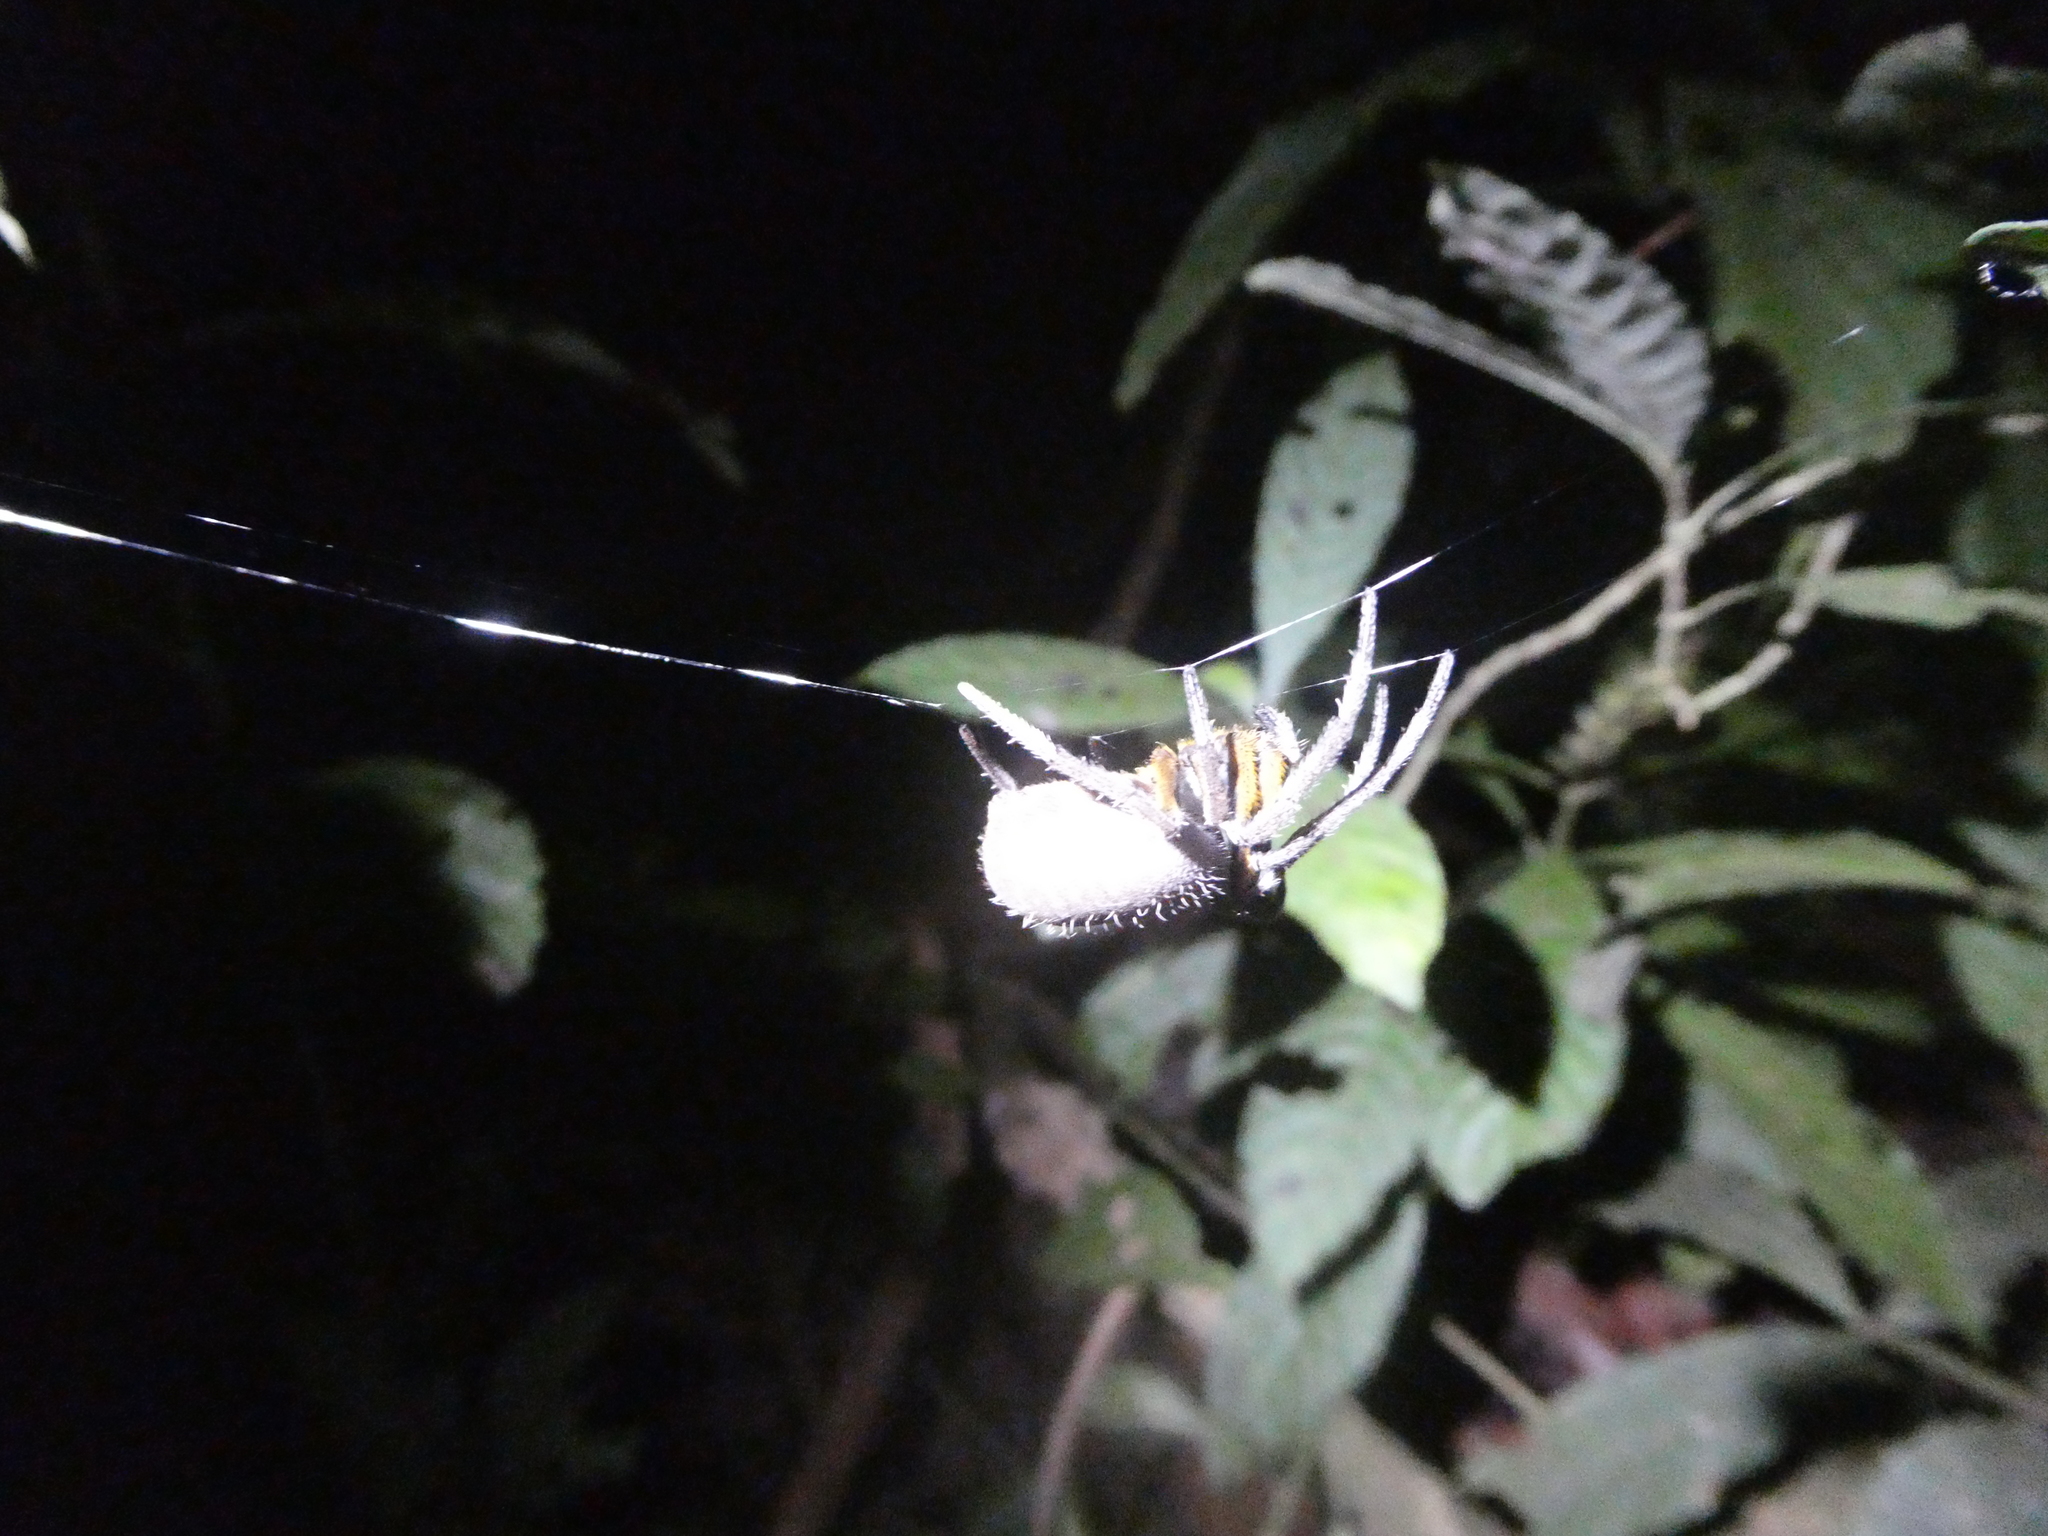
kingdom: Animalia
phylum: Arthropoda
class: Arachnida
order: Araneae
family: Araneidae
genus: Eriophora
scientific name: Eriophora
